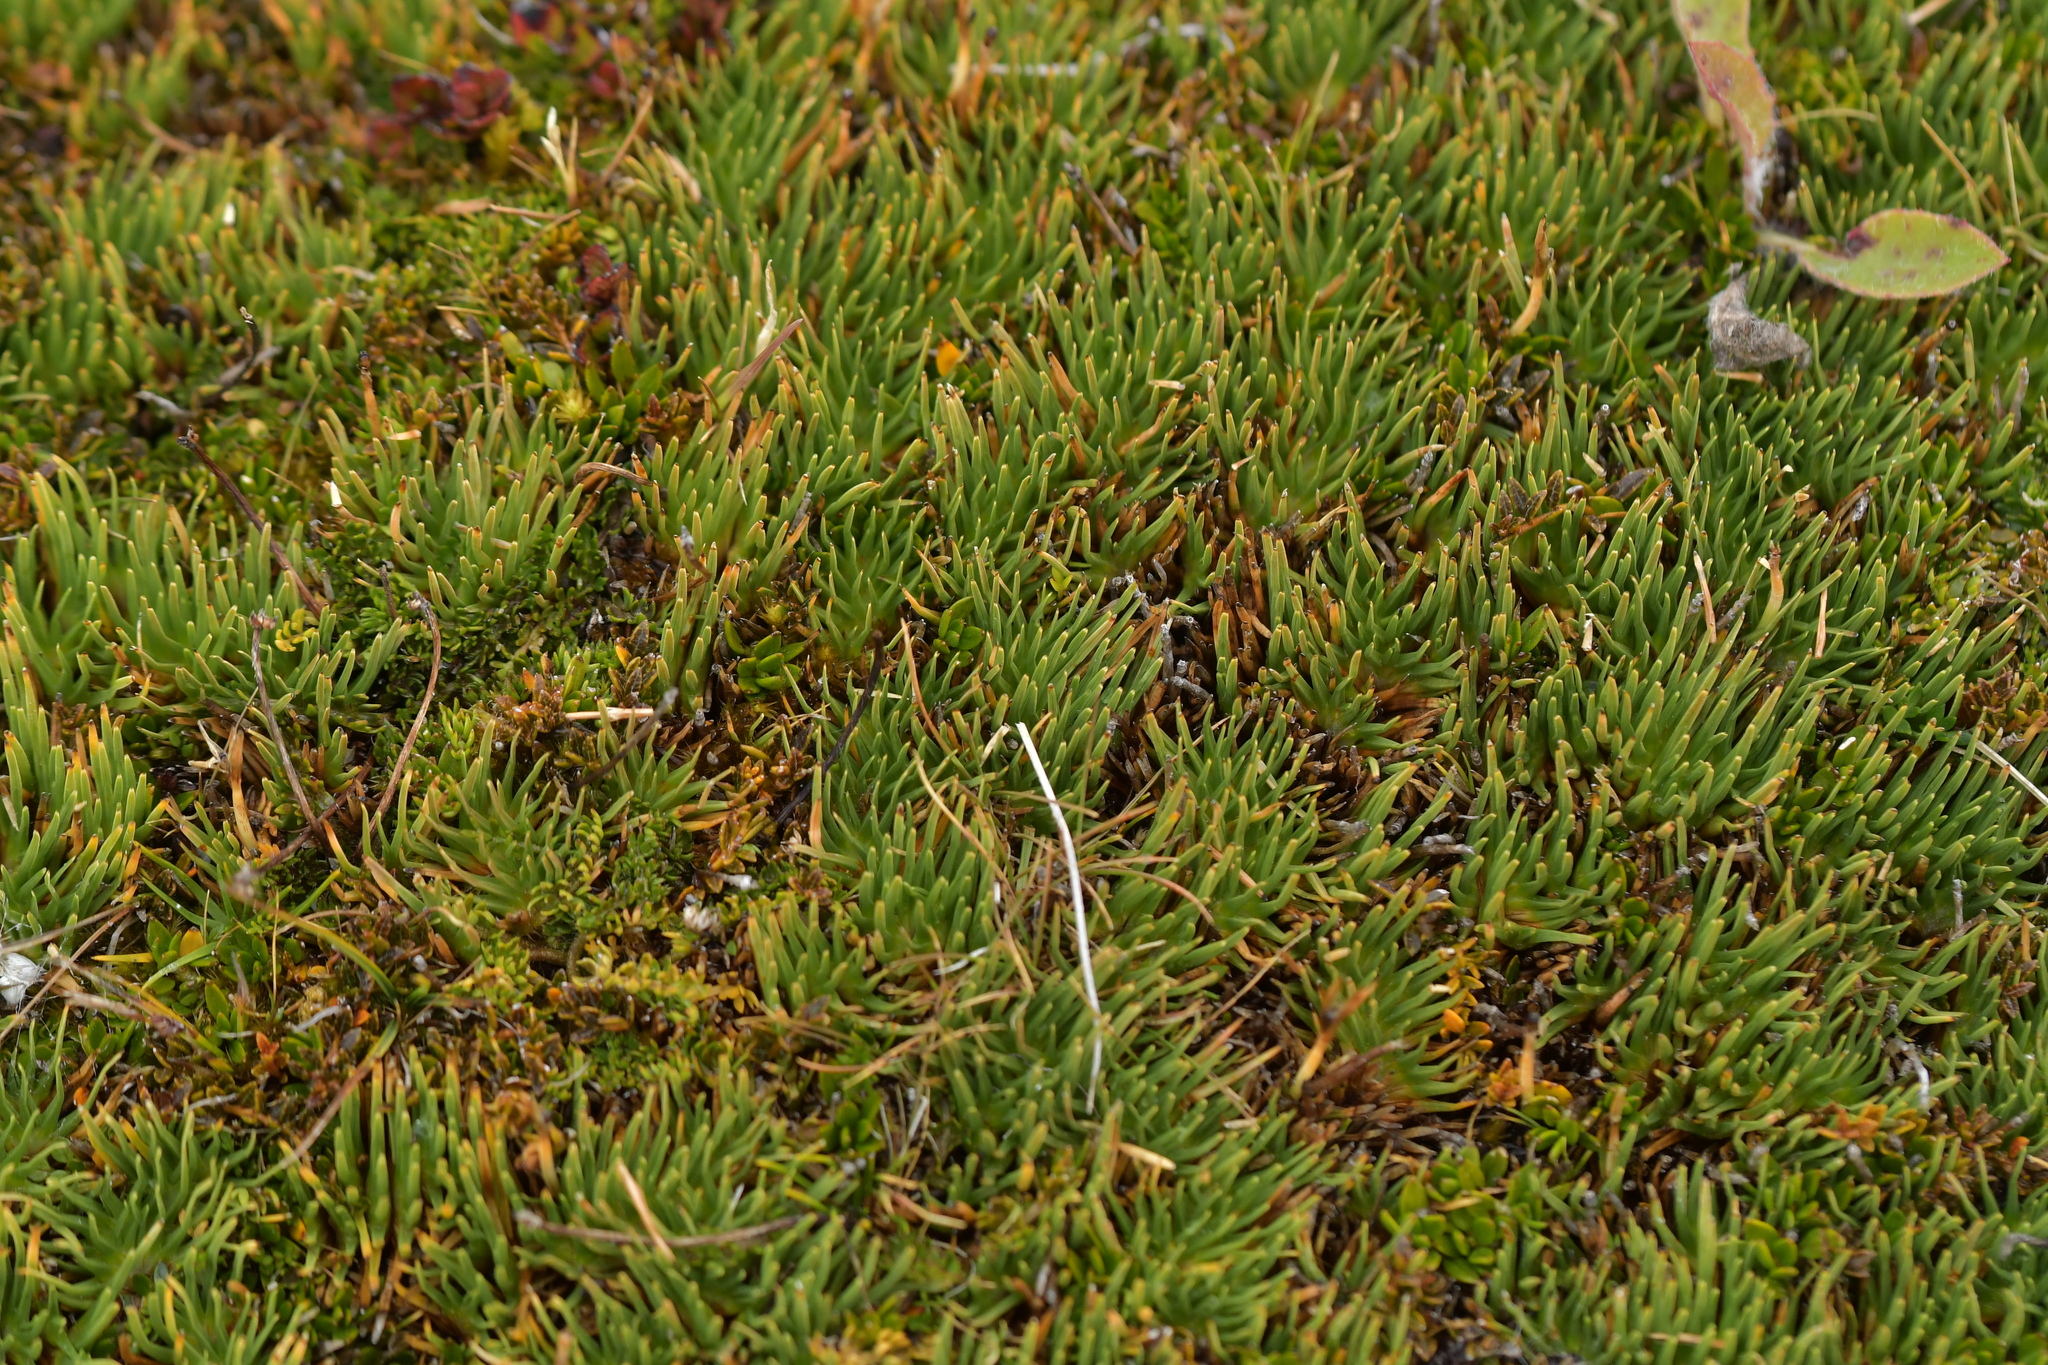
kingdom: Plantae
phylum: Tracheophyta
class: Liliopsida
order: Poales
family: Cyperaceae
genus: Oreobolus
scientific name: Oreobolus pectinatus
